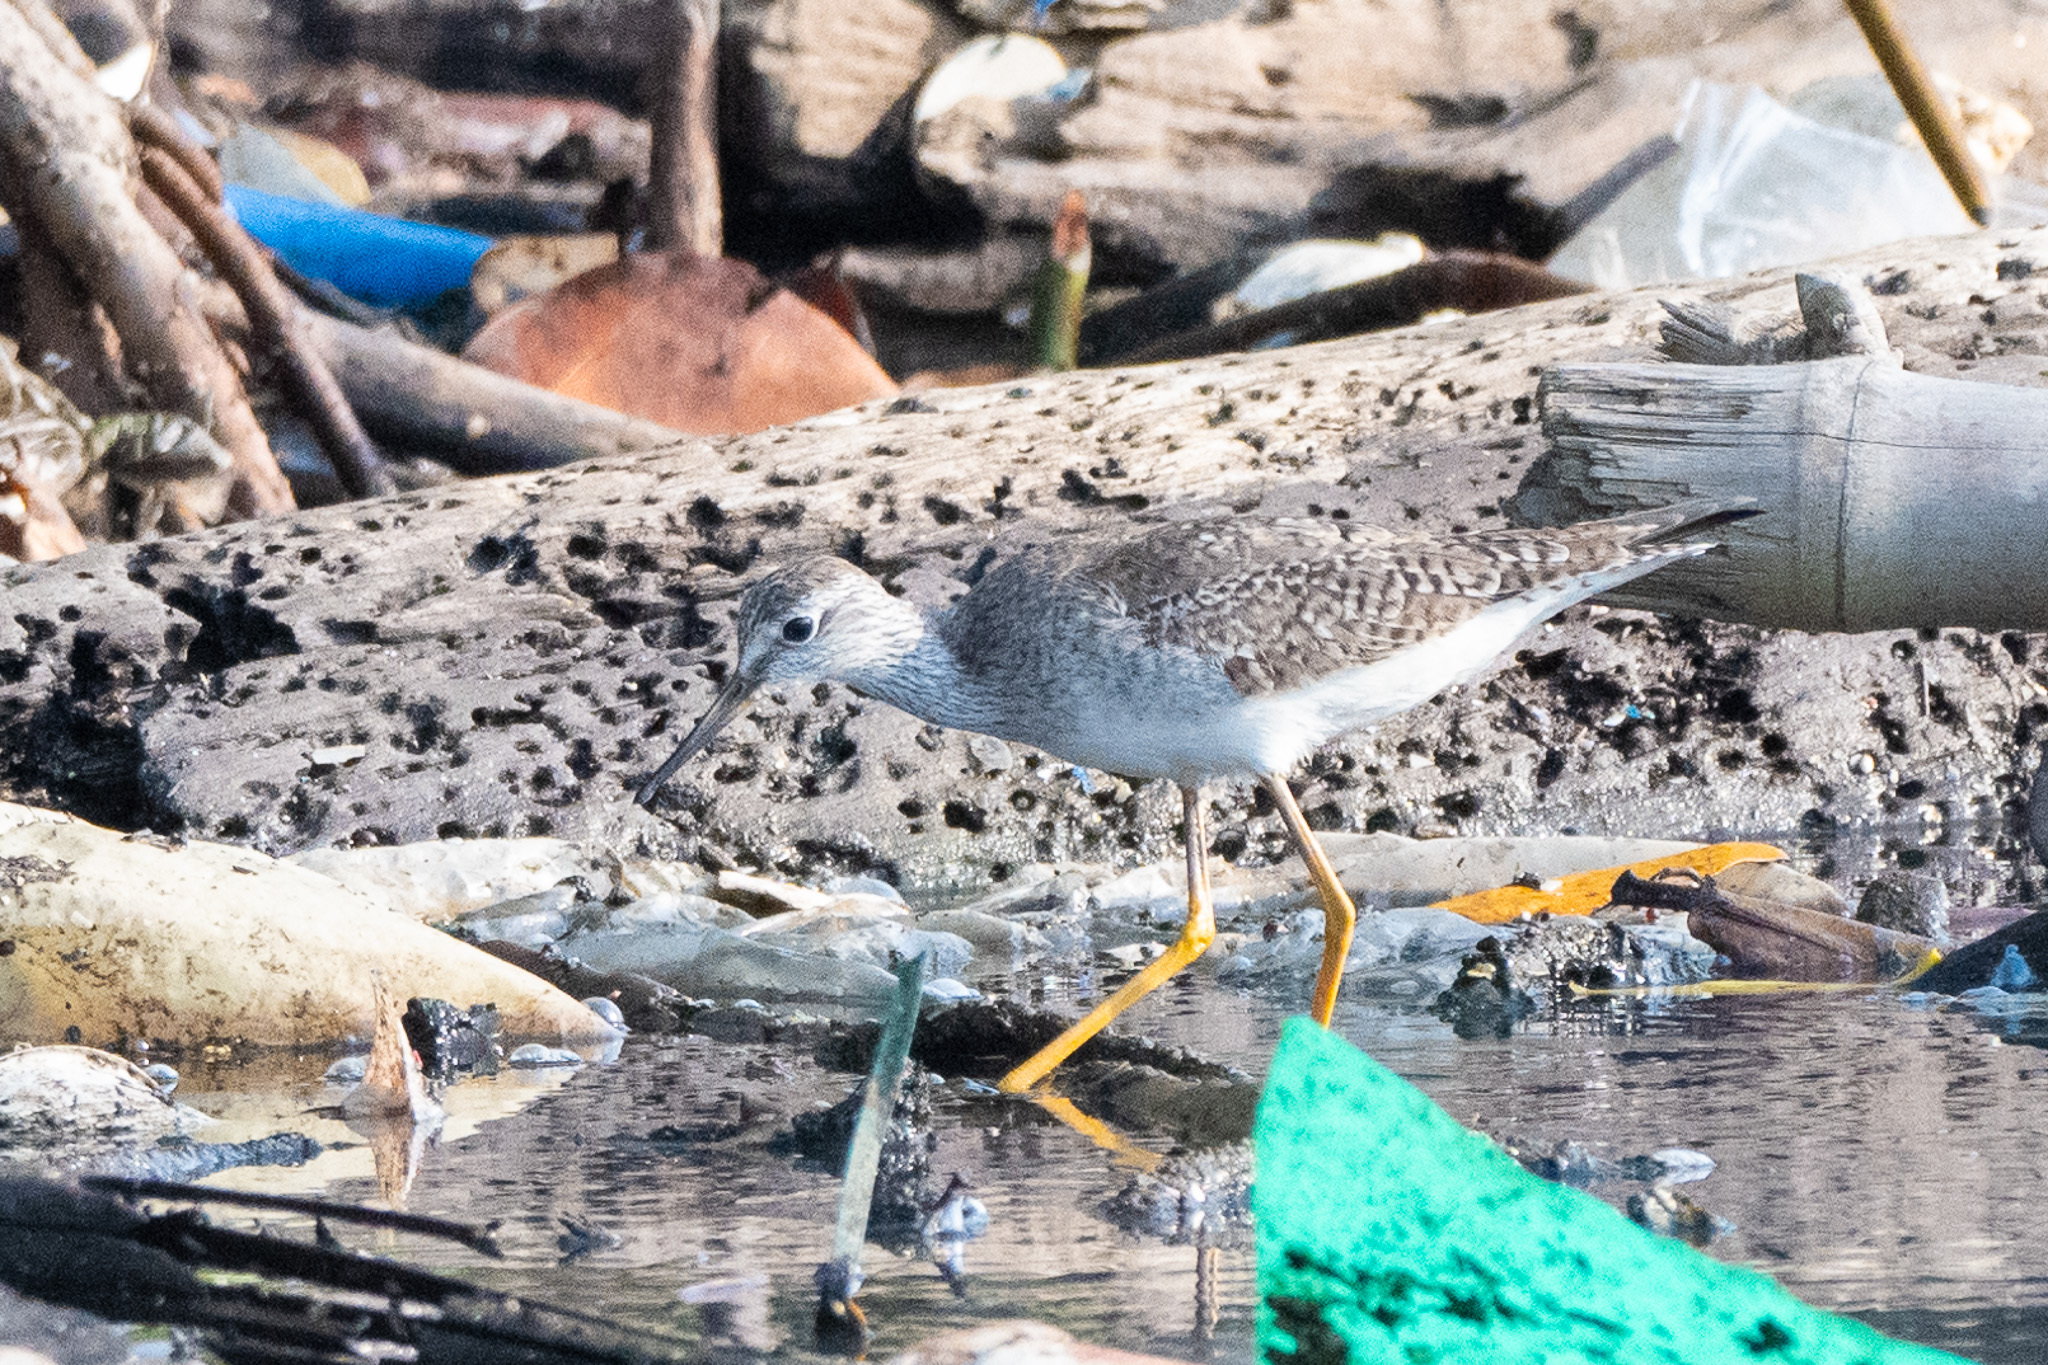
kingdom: Animalia
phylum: Chordata
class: Aves
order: Charadriiformes
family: Scolopacidae
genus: Tringa
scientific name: Tringa flavipes
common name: Lesser yellowlegs
